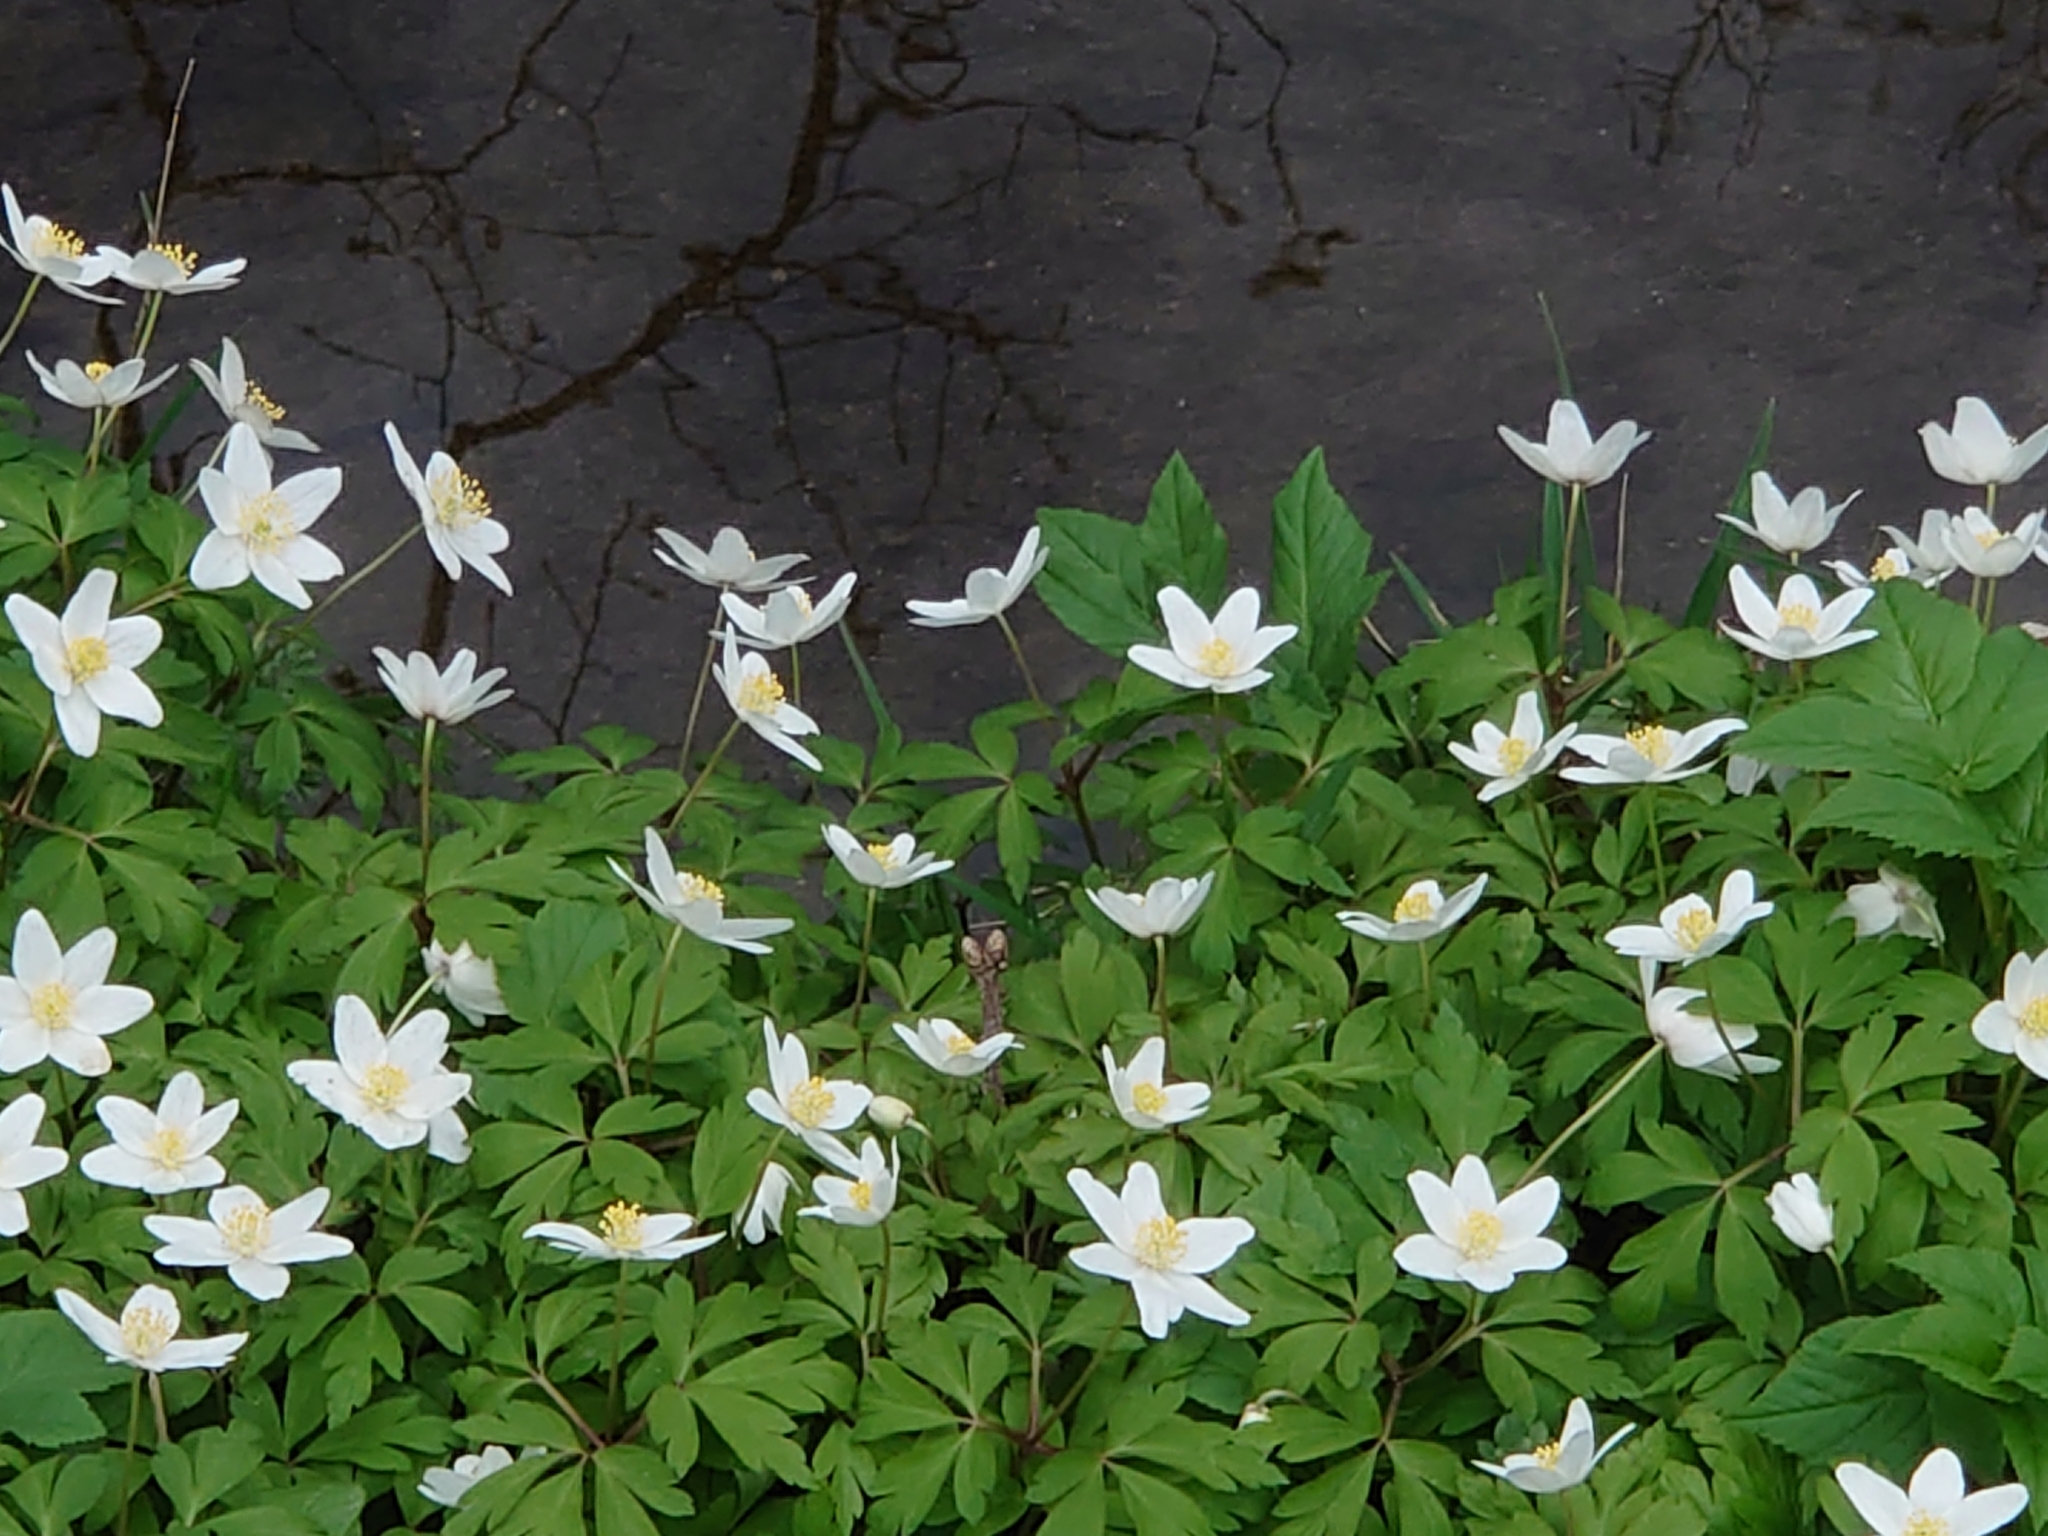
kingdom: Plantae
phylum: Tracheophyta
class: Magnoliopsida
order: Ranunculales
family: Ranunculaceae
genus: Anemone
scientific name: Anemone nemorosa
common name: Wood anemone
